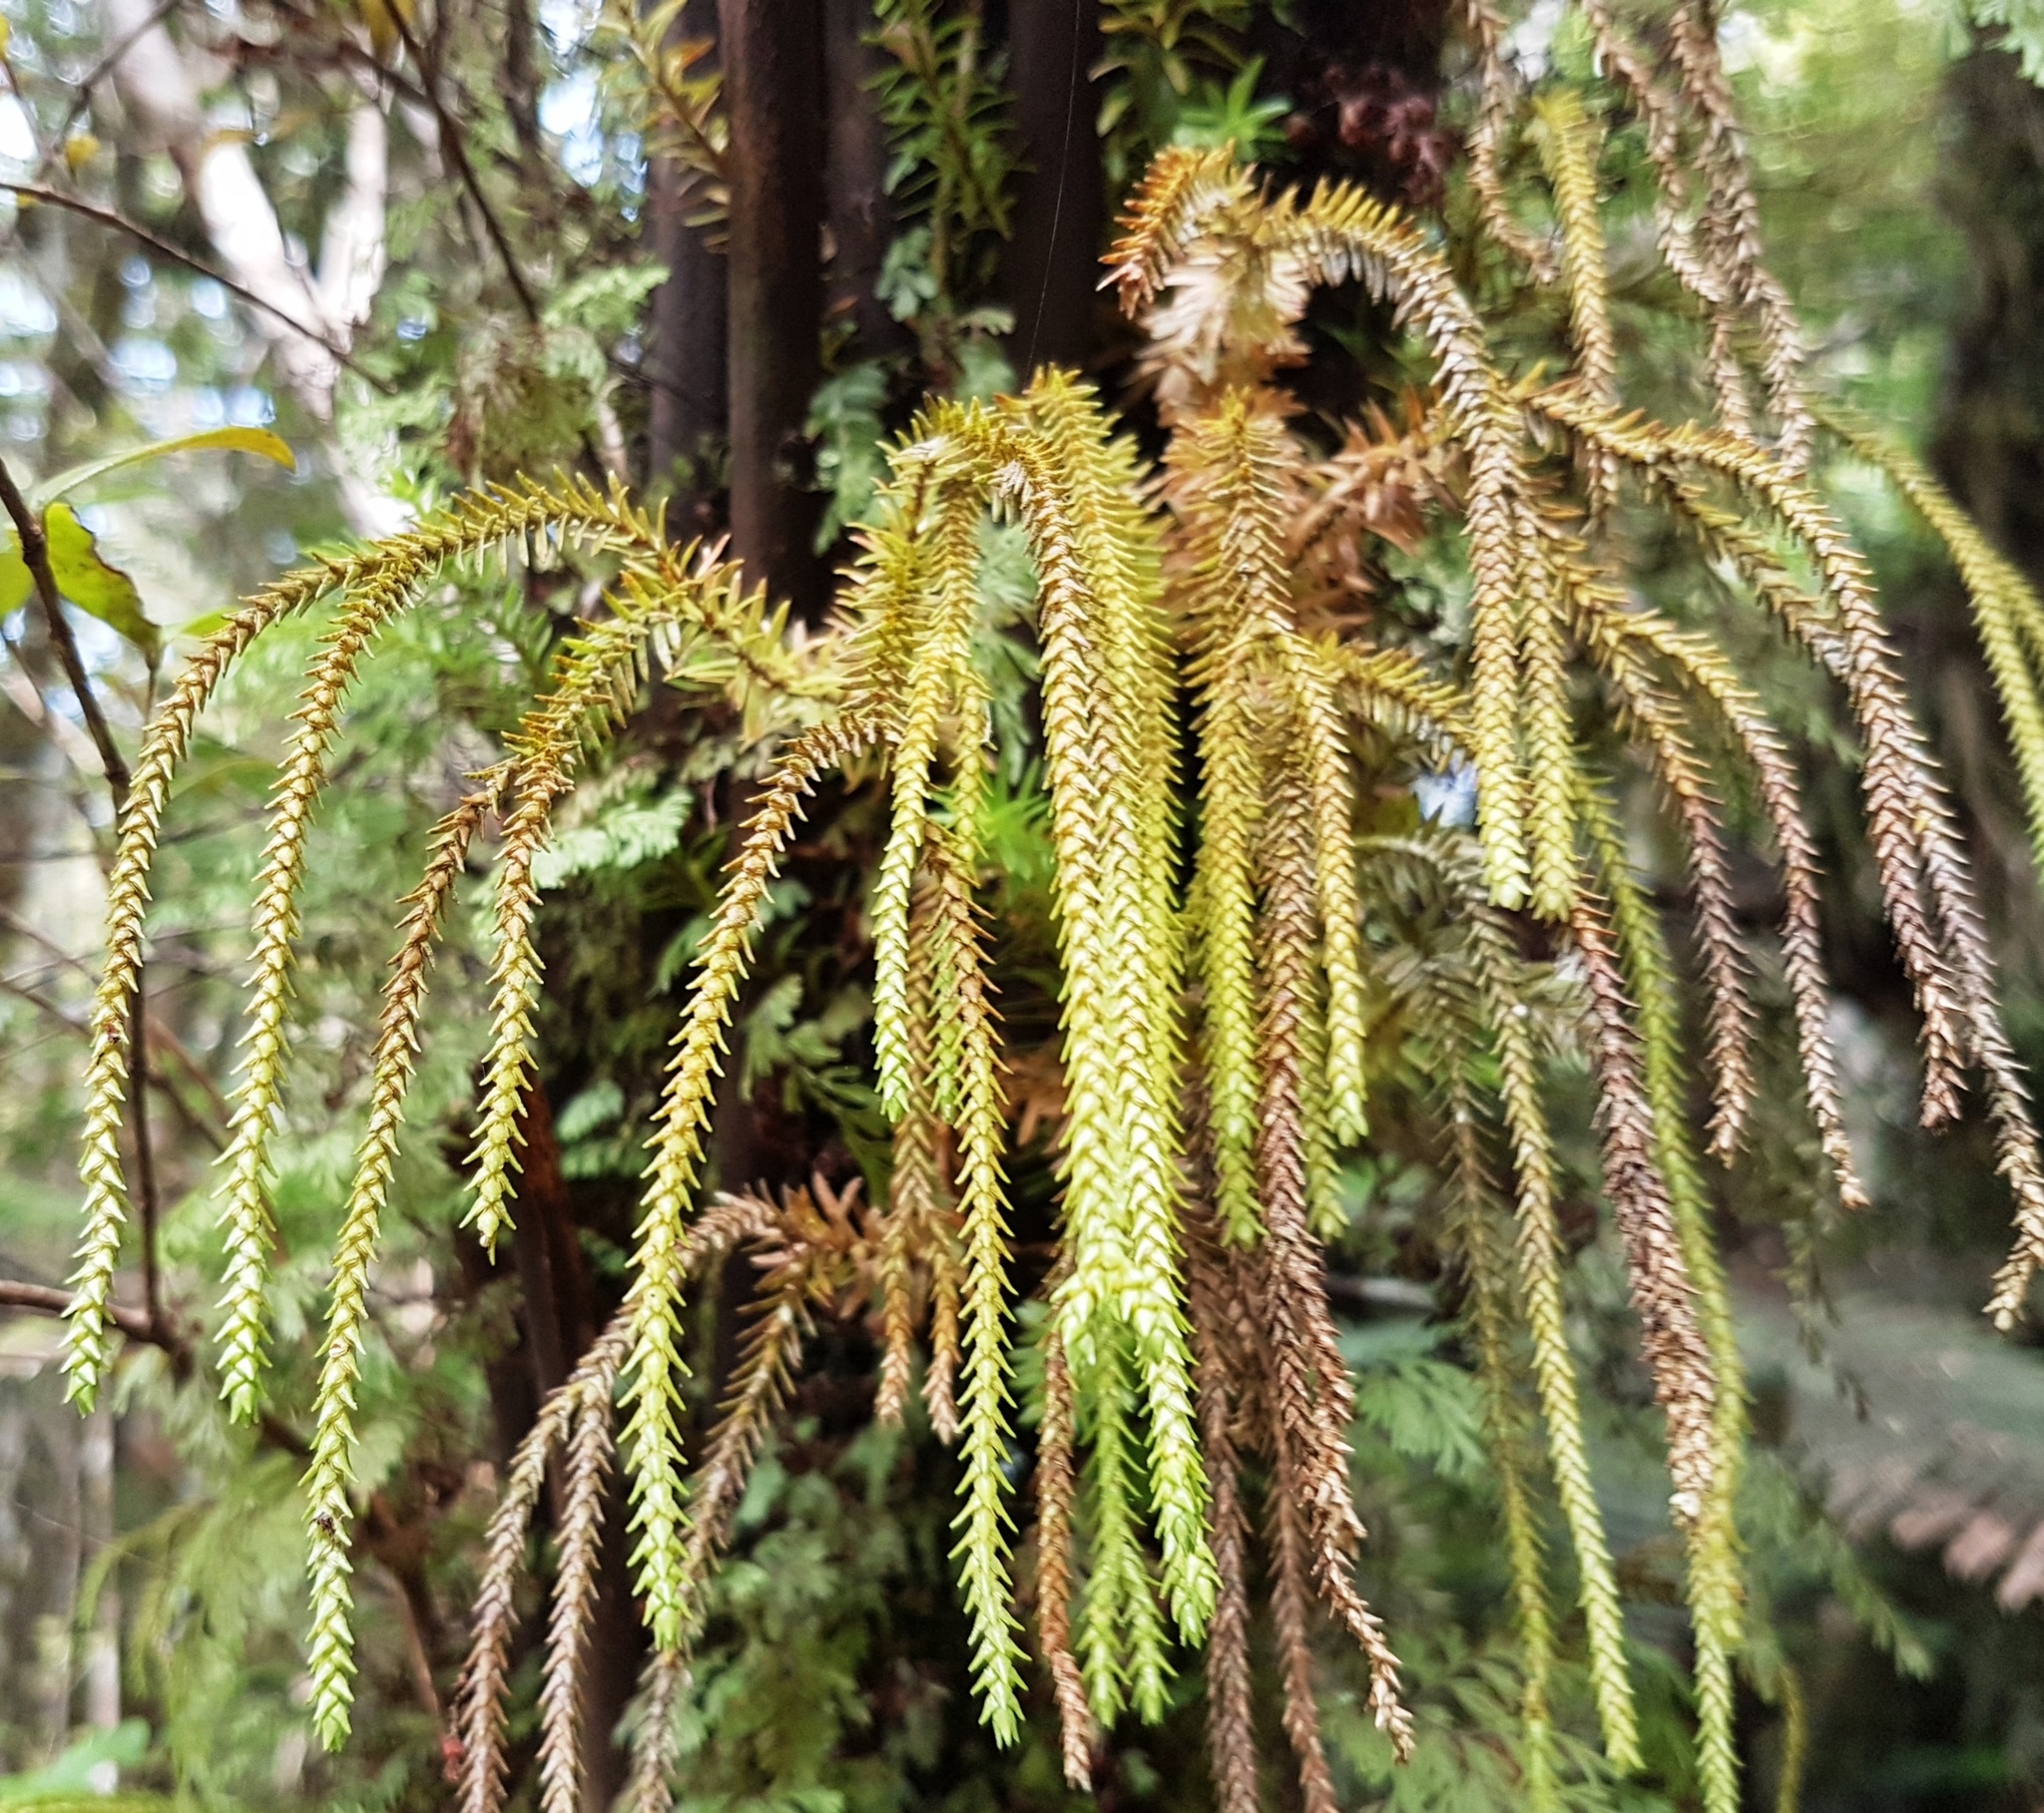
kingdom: Plantae
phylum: Tracheophyta
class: Lycopodiopsida
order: Lycopodiales
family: Lycopodiaceae
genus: Phlegmariurus
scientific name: Phlegmariurus varius
